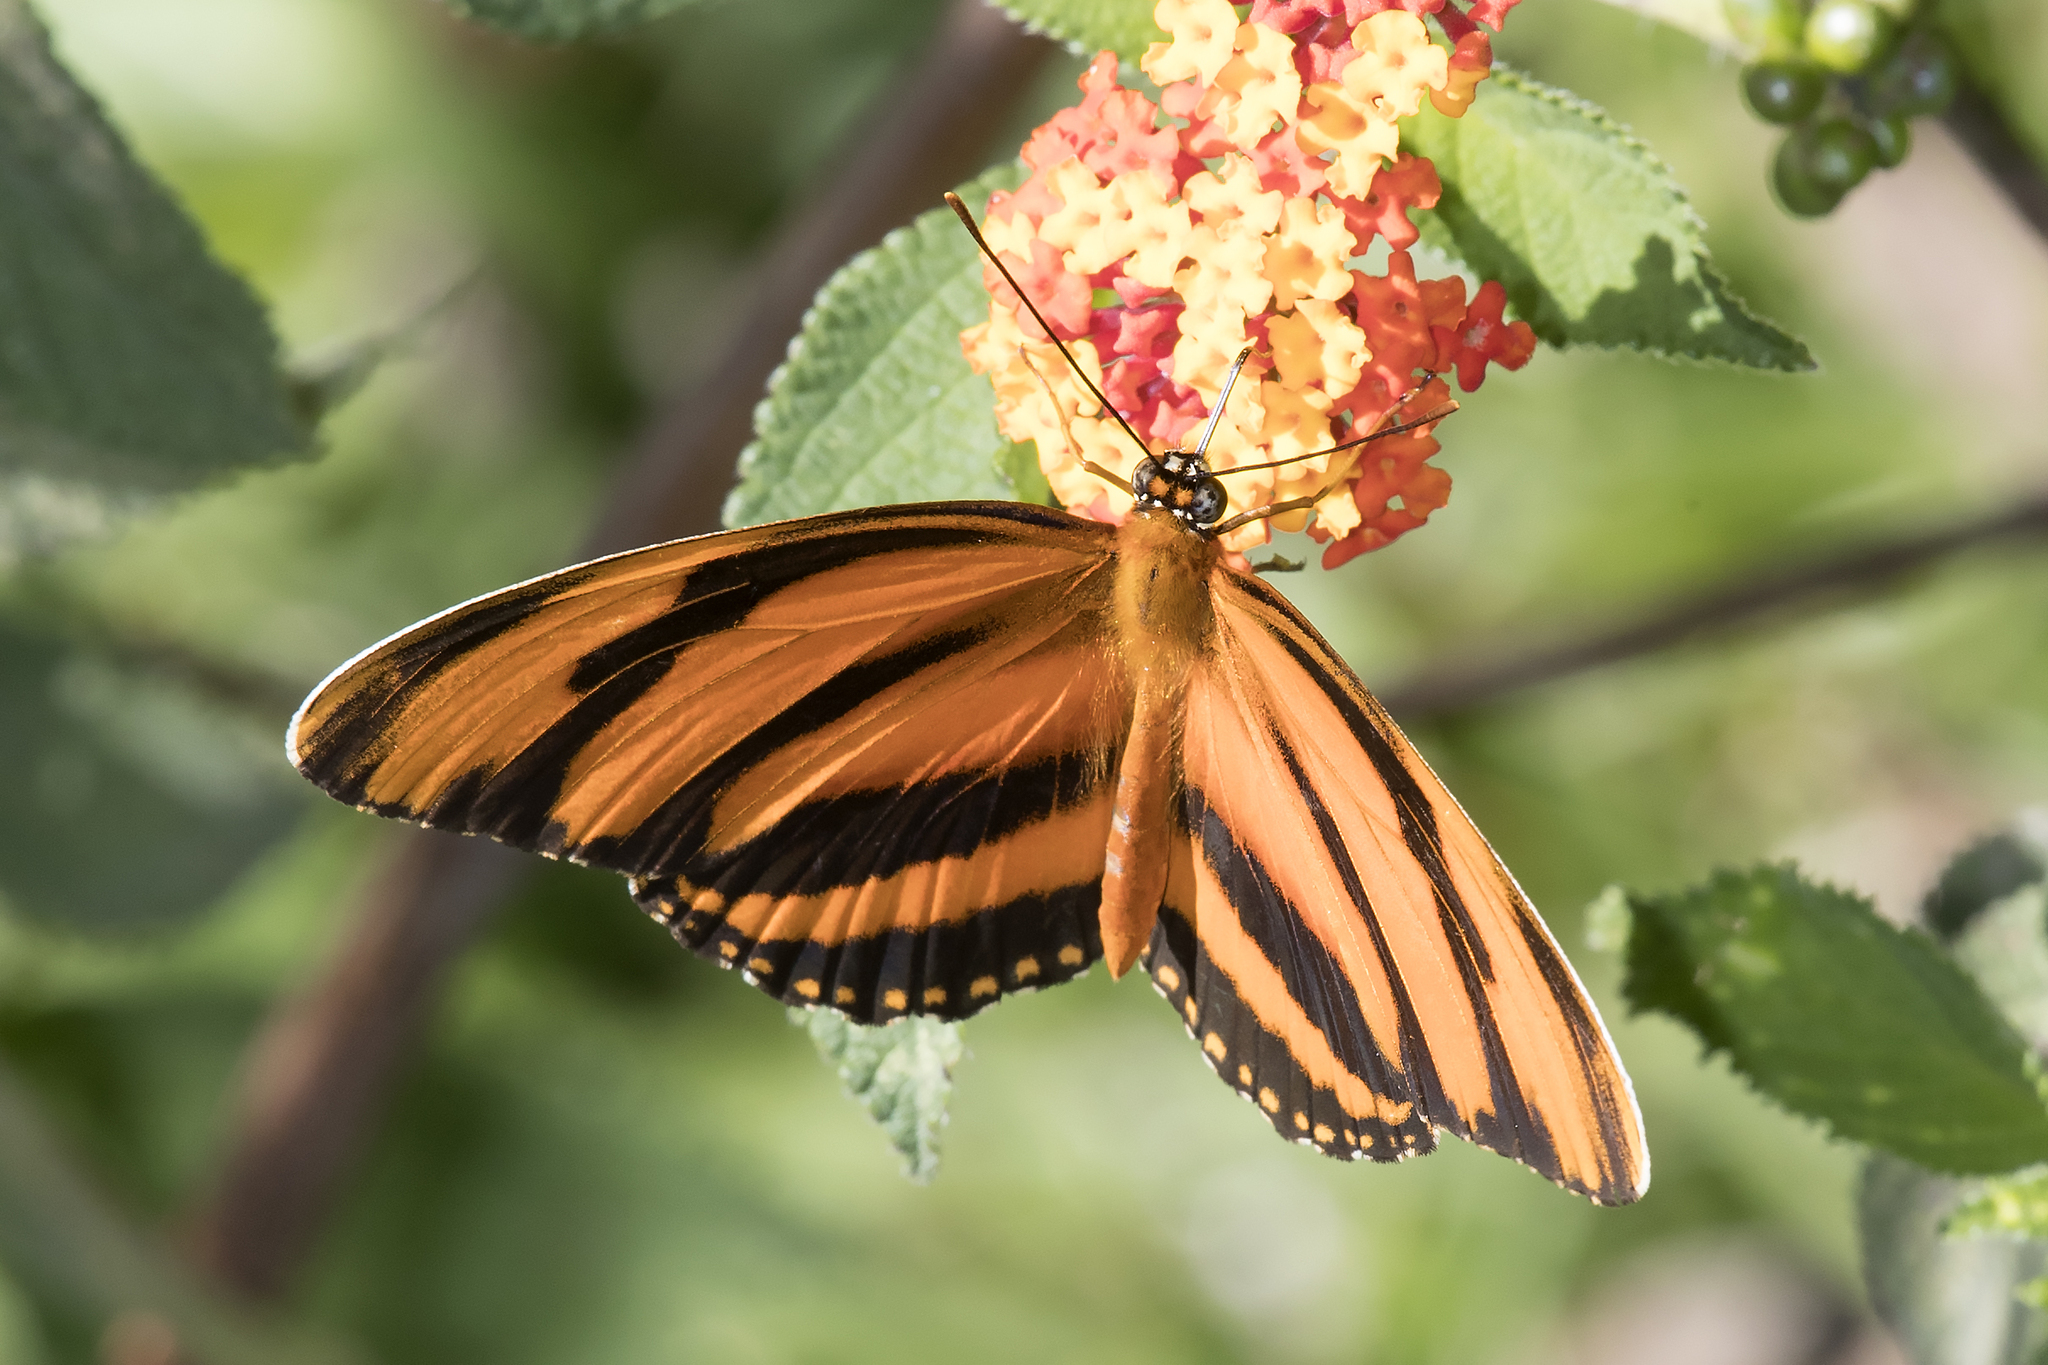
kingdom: Animalia
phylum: Arthropoda
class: Insecta
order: Lepidoptera
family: Nymphalidae
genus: Dryadula
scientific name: Dryadula phaetusa
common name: Banded orange heliconian
